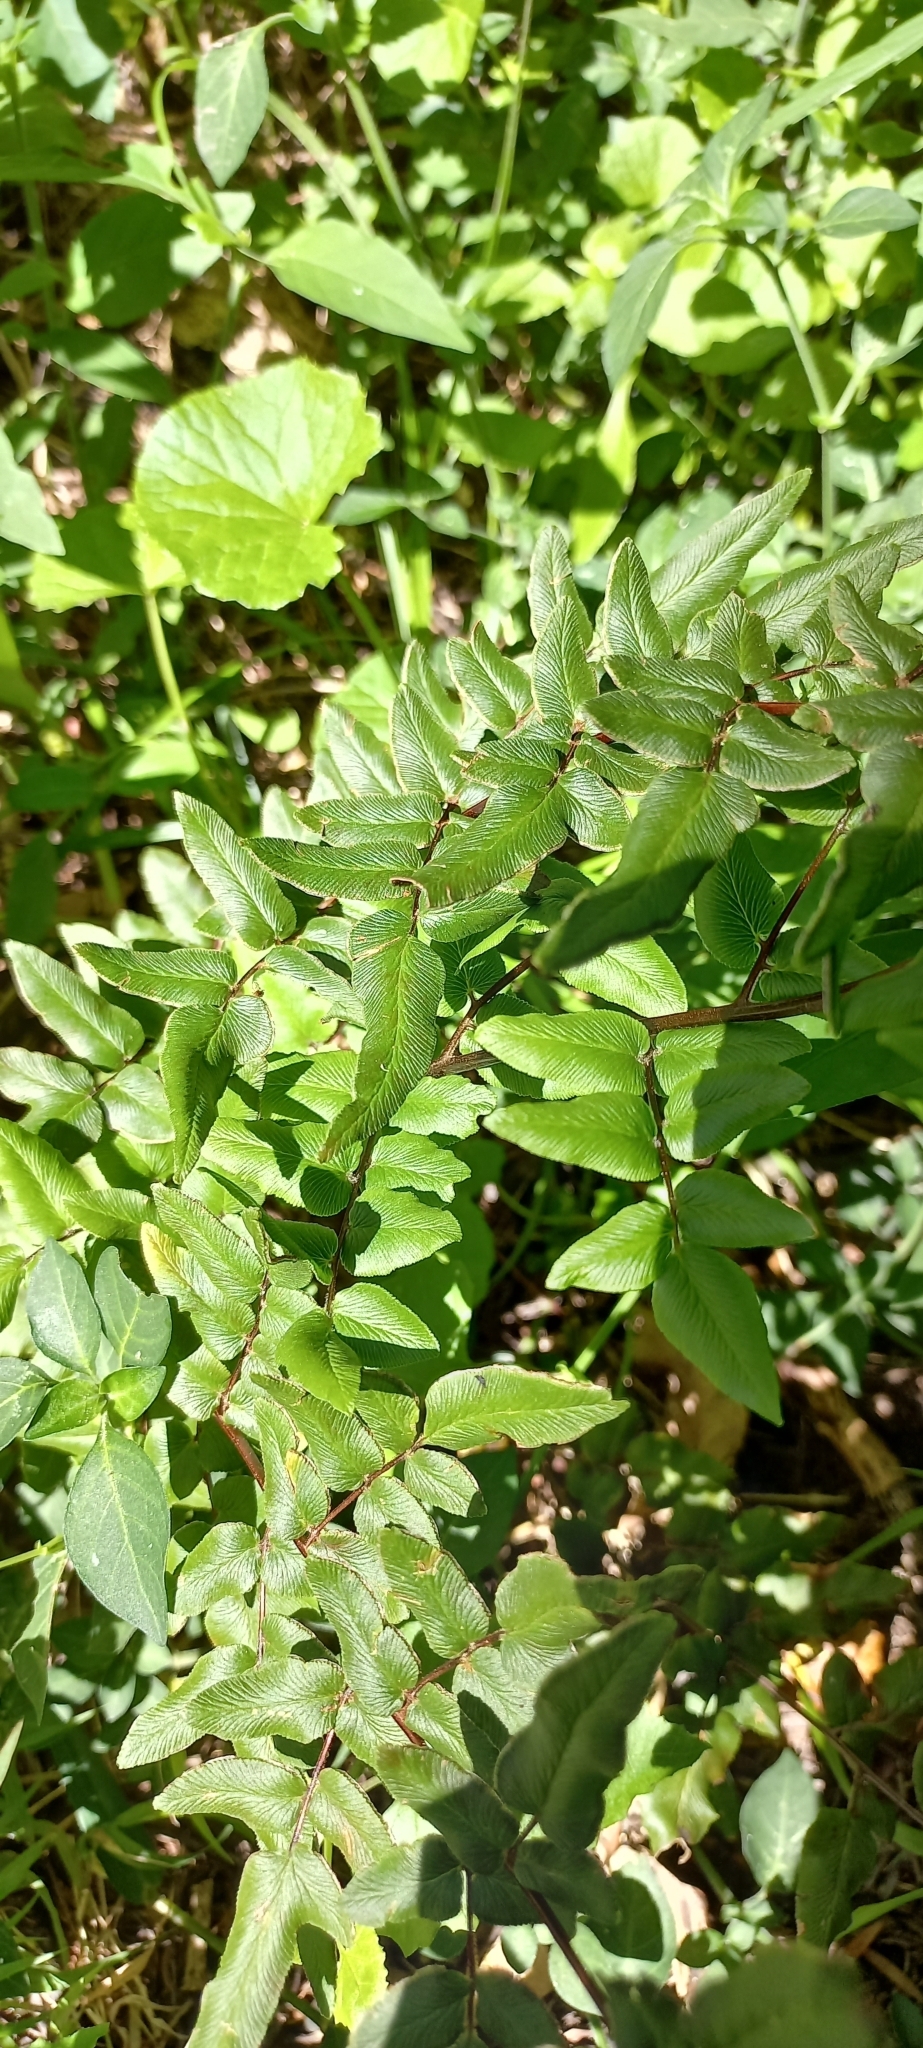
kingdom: Plantae
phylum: Tracheophyta
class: Polypodiopsida
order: Polypodiales
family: Pteridaceae
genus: Cheilanthes
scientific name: Cheilanthes viridis
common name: Green cliffbrake
